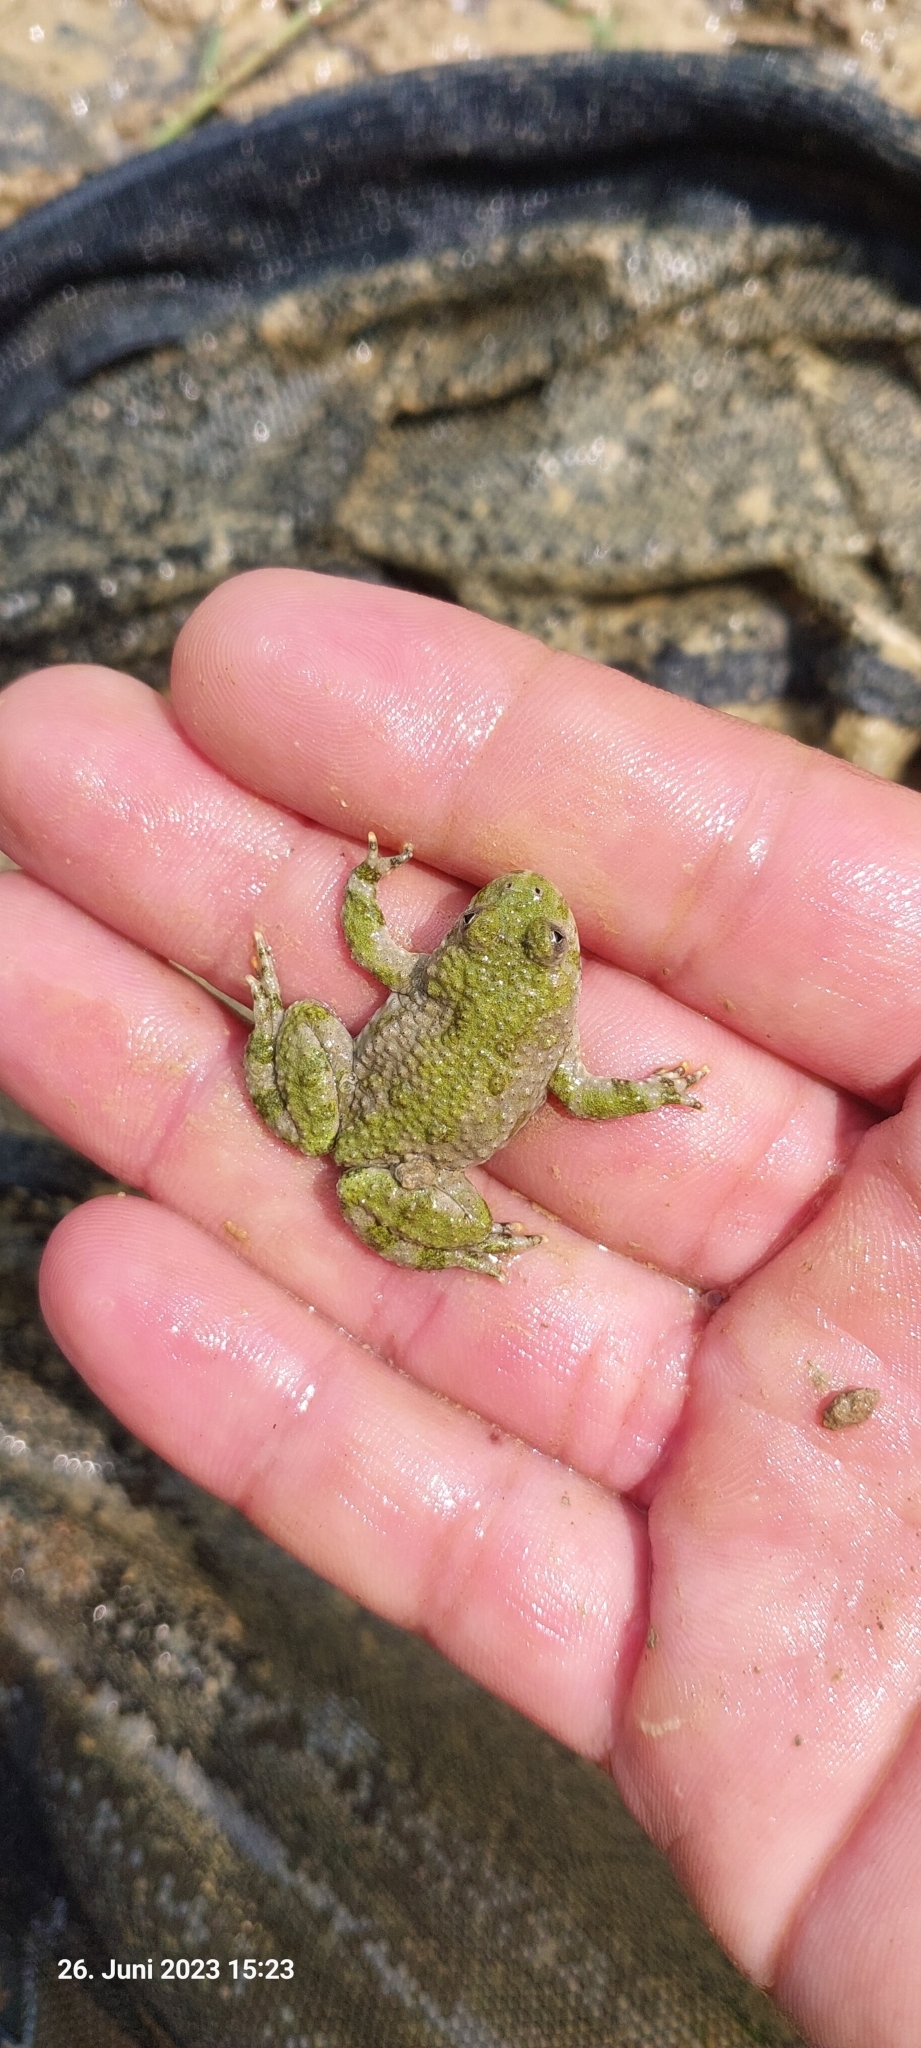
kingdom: Animalia
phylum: Chordata
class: Amphibia
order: Anura
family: Bombinatoridae
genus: Bombina
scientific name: Bombina variegata
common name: Yellow-bellied toad
